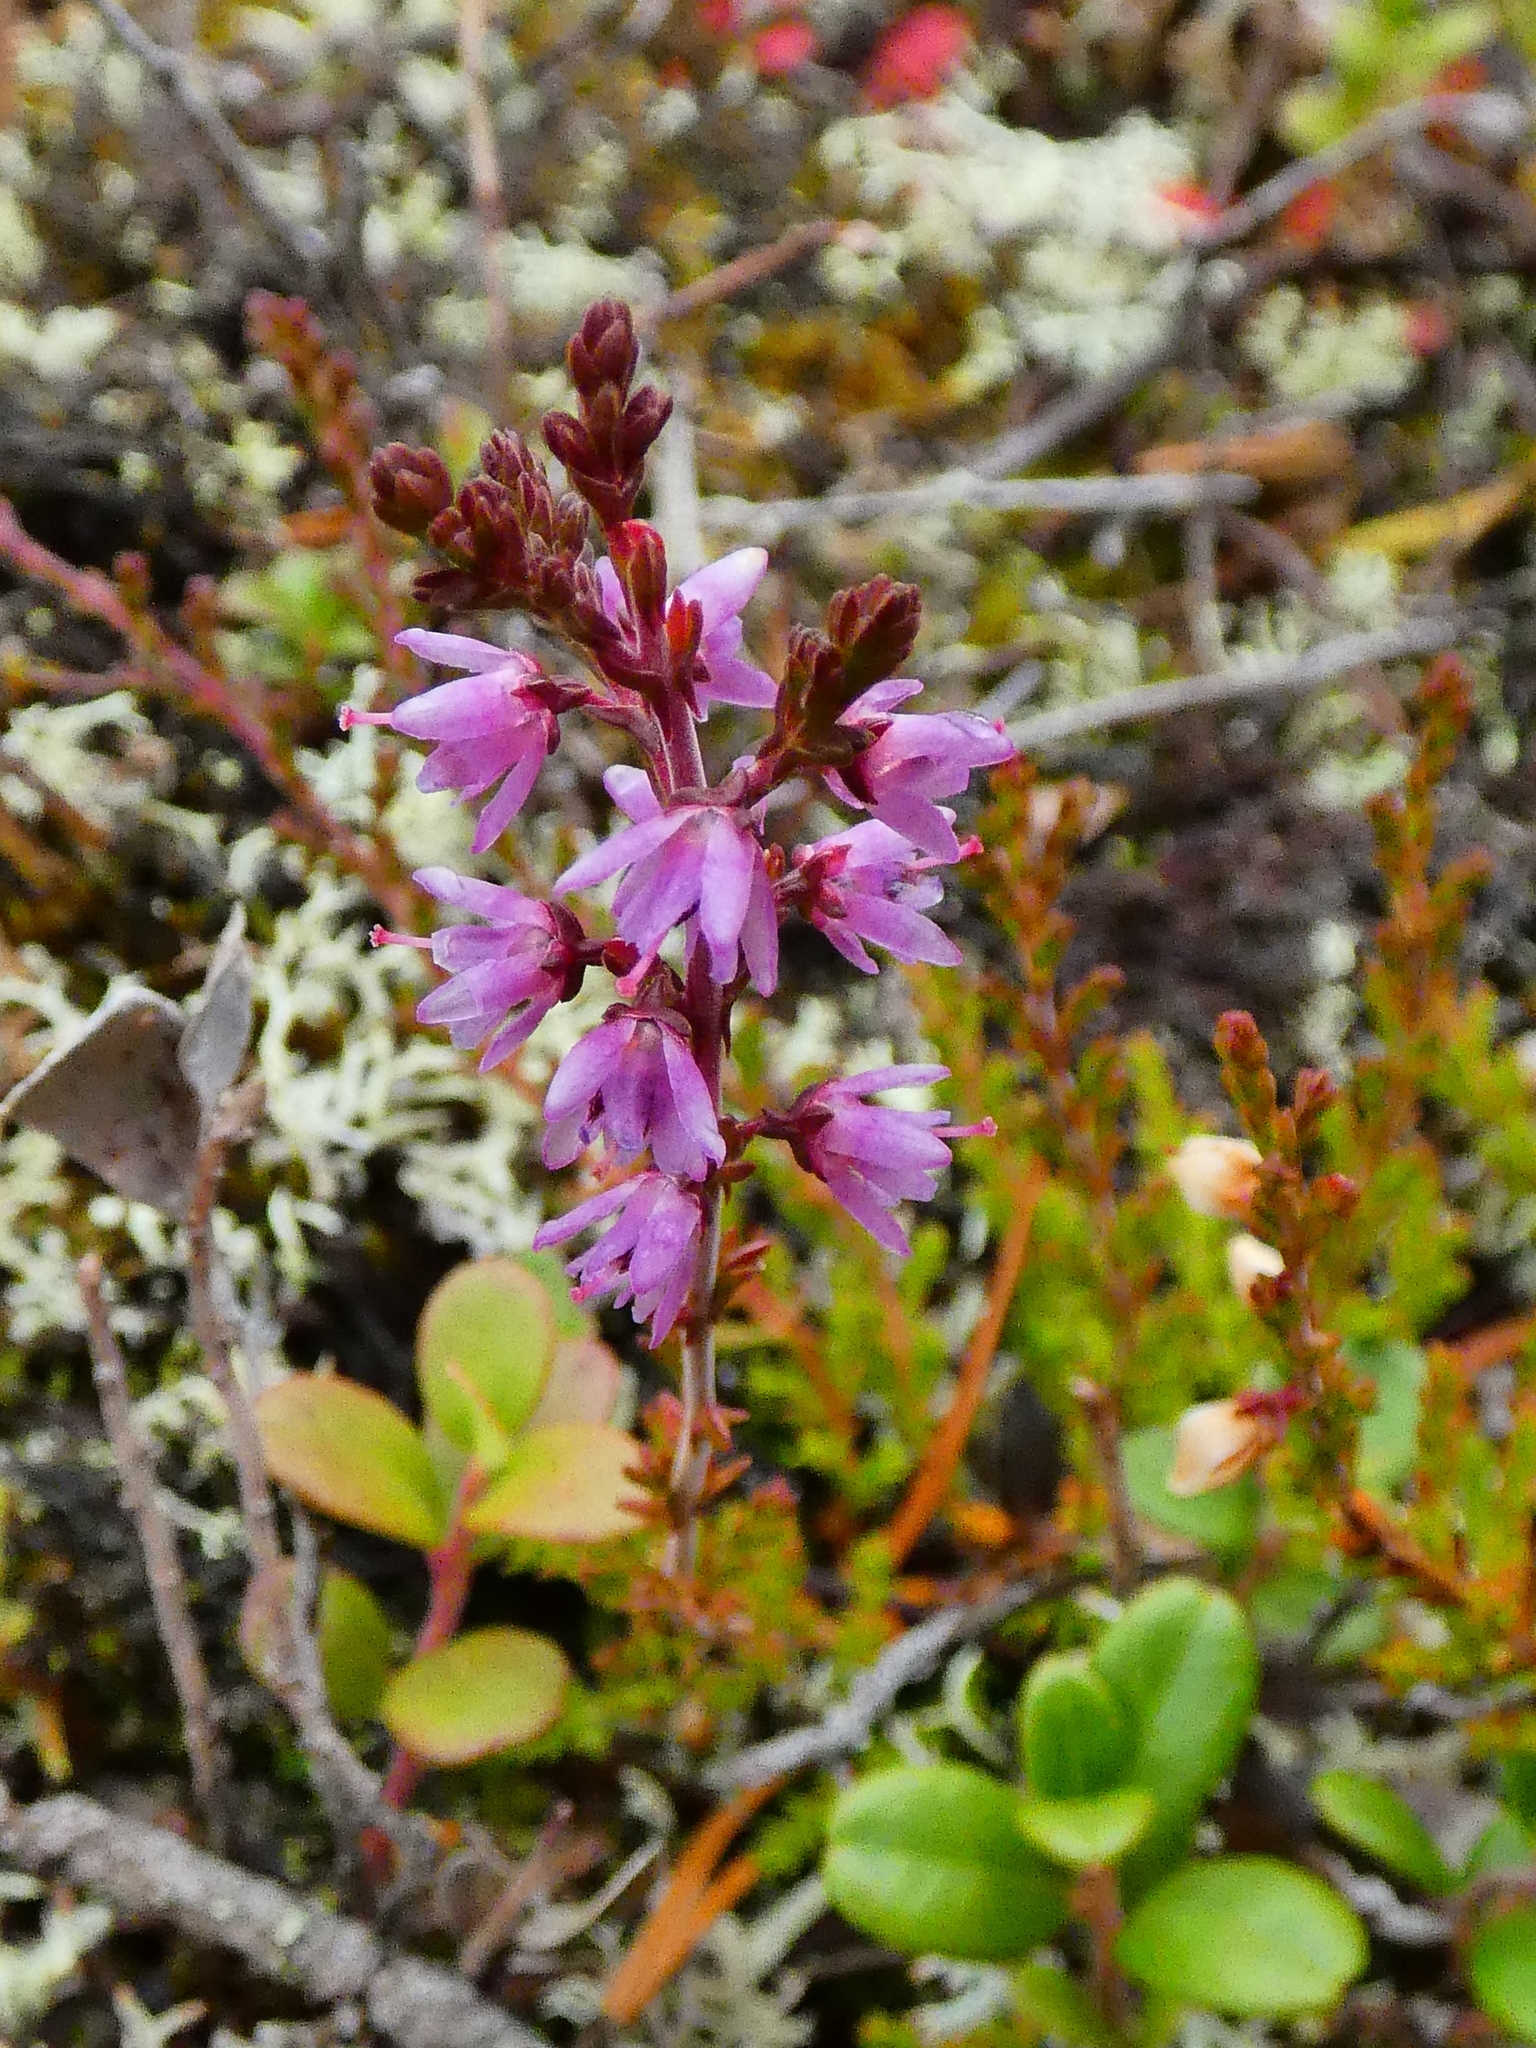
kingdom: Plantae
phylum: Tracheophyta
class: Magnoliopsida
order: Ericales
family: Ericaceae
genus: Calluna
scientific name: Calluna vulgaris
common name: Heather
